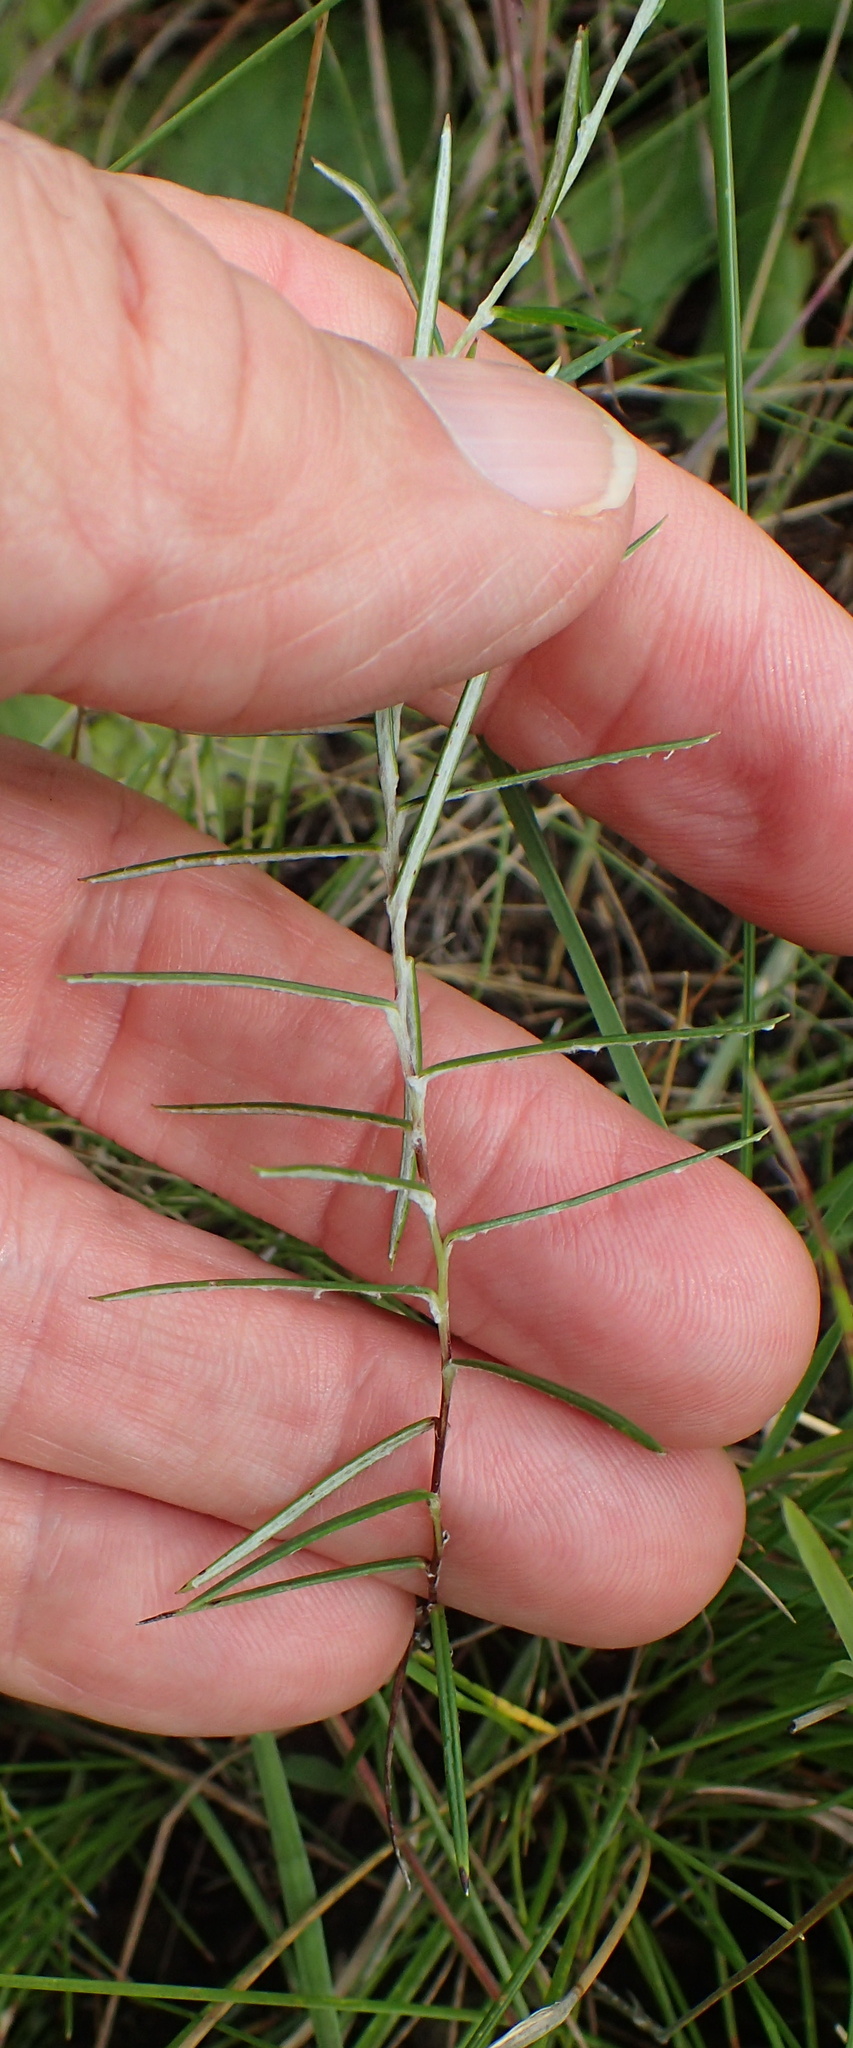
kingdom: Plantae
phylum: Tracheophyta
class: Magnoliopsida
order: Asterales
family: Asteraceae
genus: Athrixia
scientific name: Athrixia angustissima
